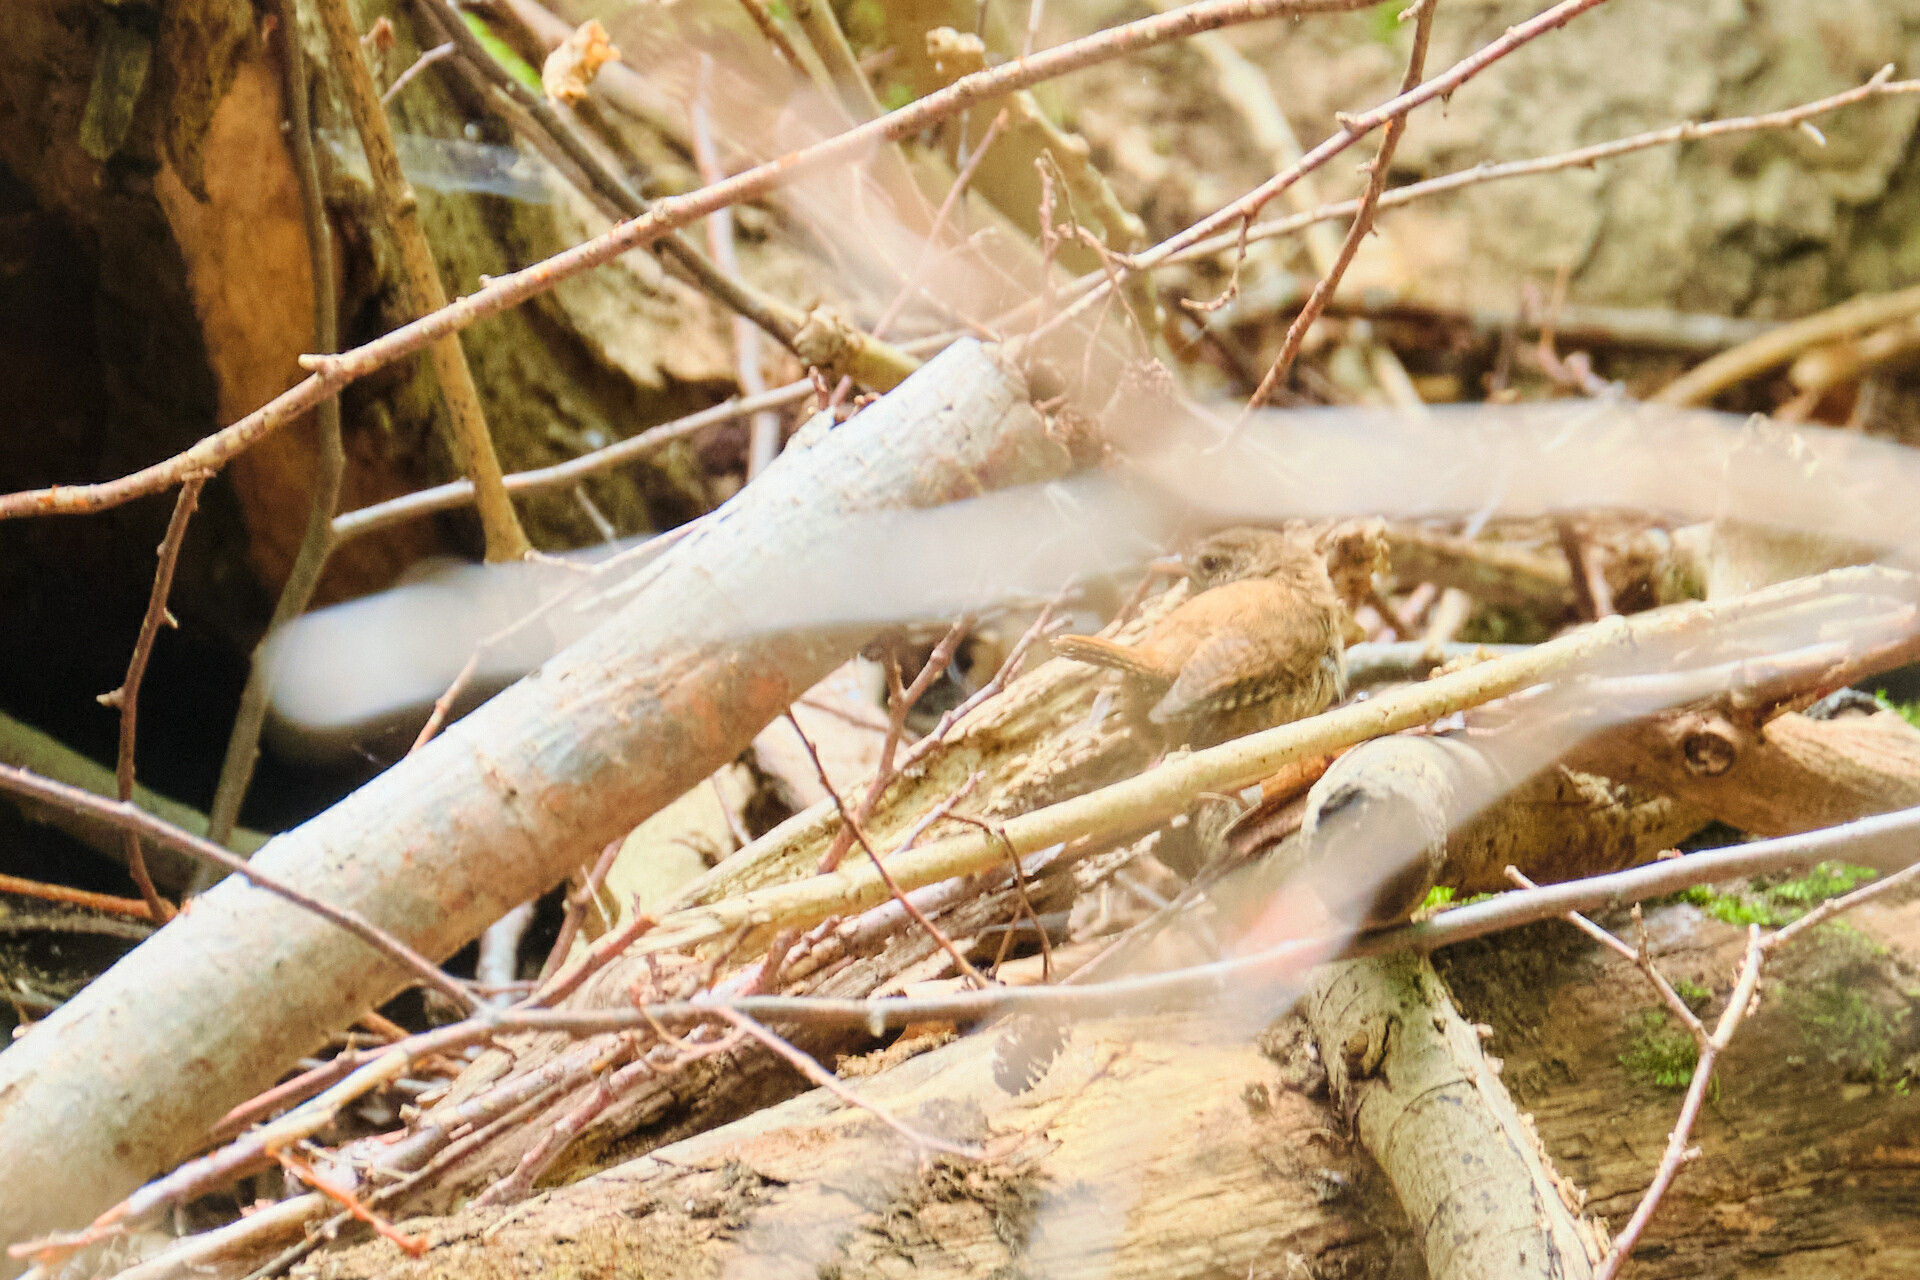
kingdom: Animalia
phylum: Chordata
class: Aves
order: Passeriformes
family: Troglodytidae
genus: Troglodytes
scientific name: Troglodytes troglodytes
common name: Eurasian wren
